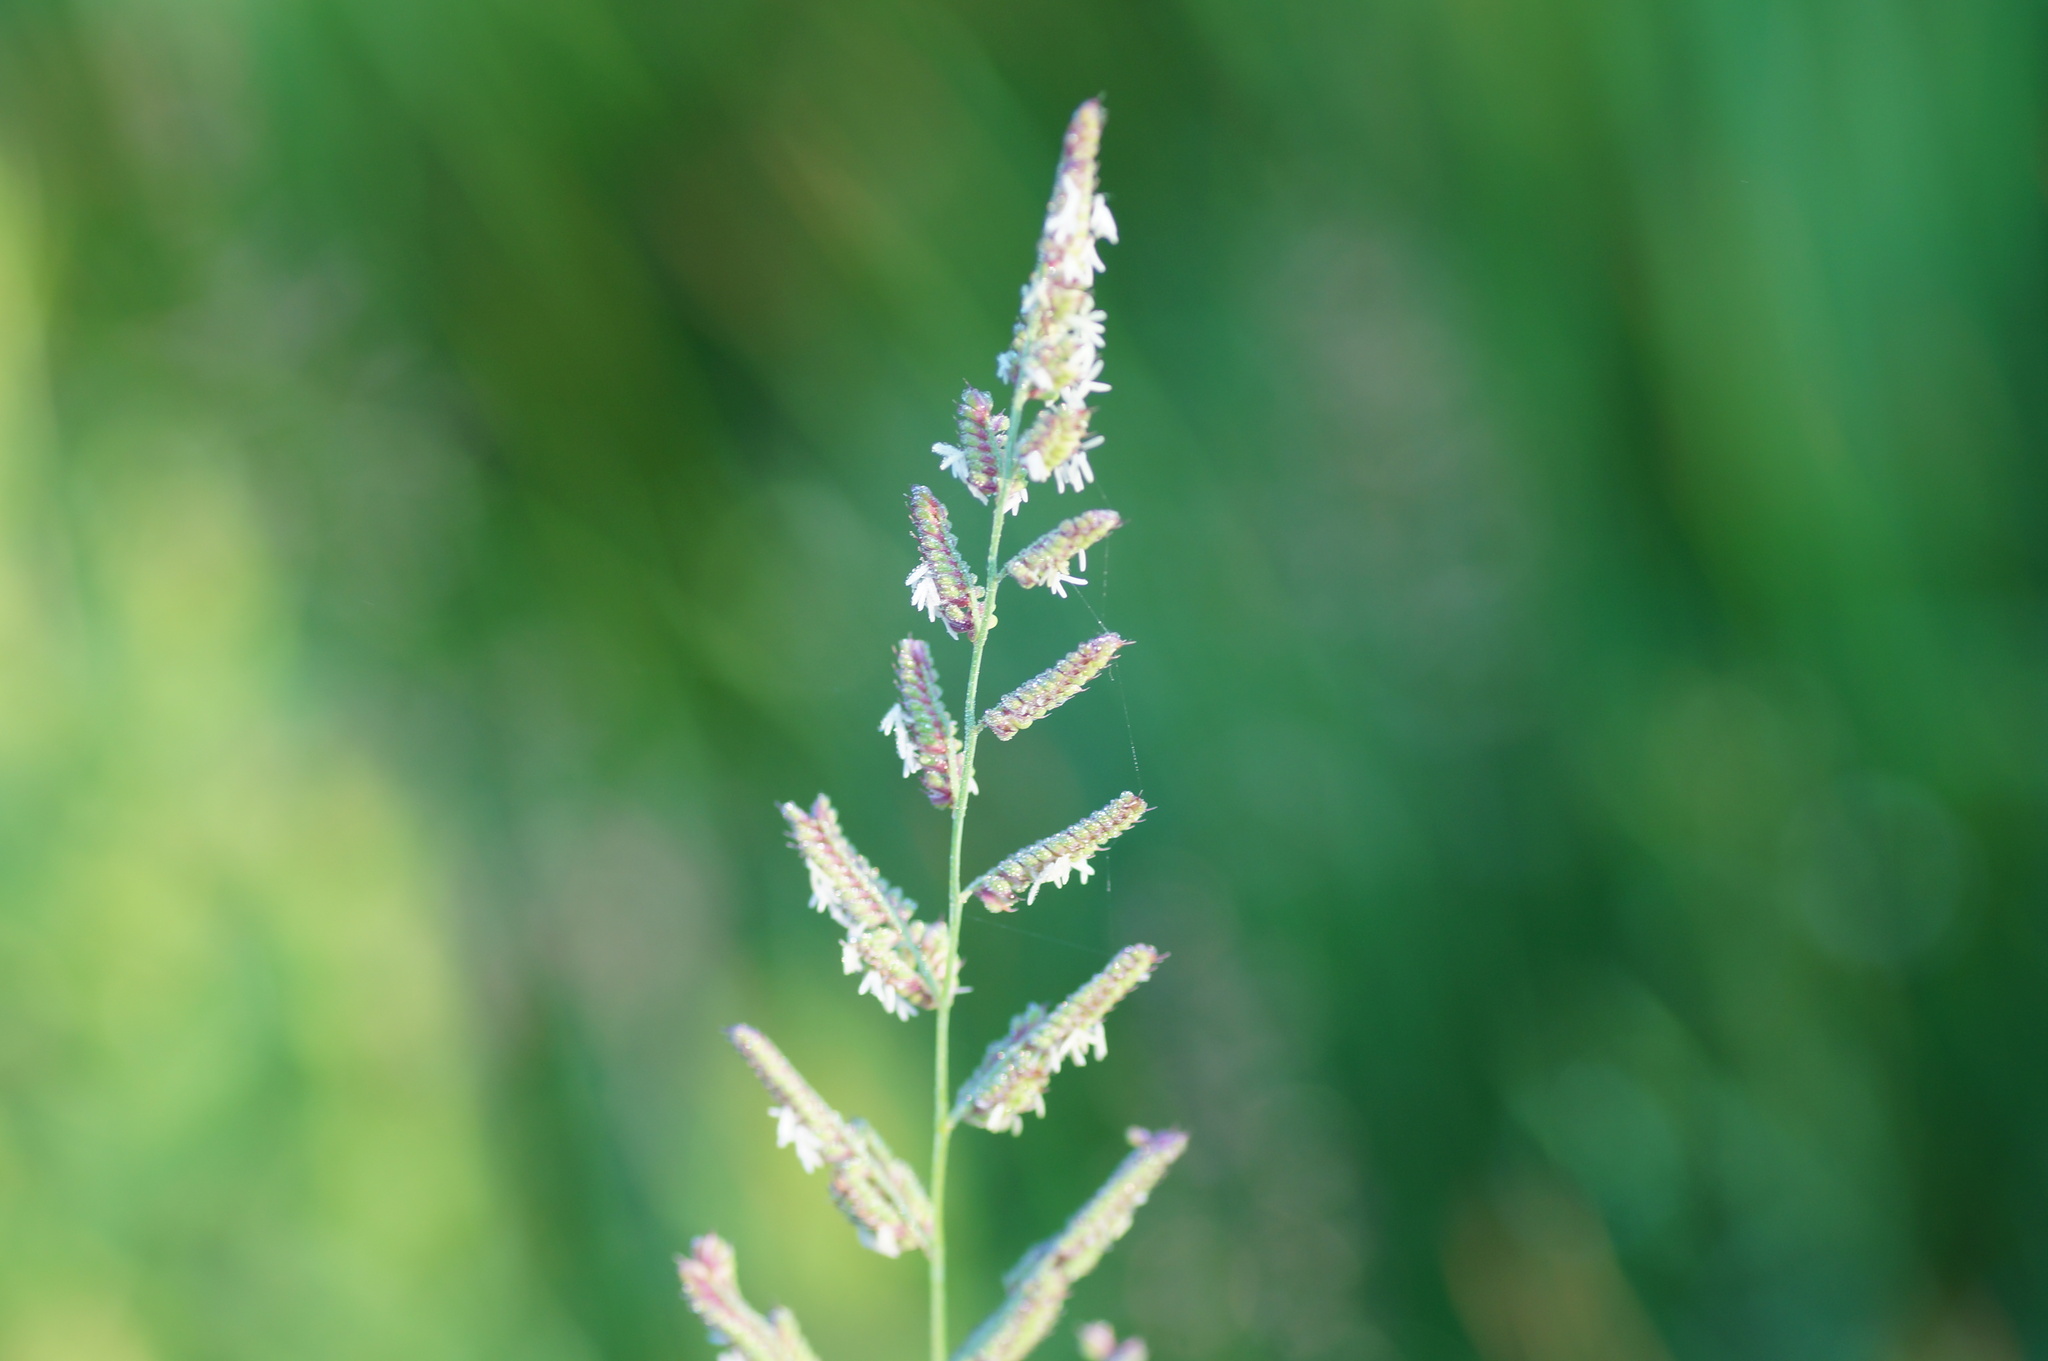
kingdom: Plantae
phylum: Tracheophyta
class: Liliopsida
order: Poales
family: Poaceae
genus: Beckmannia
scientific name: Beckmannia eruciformis
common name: European slough-grass
